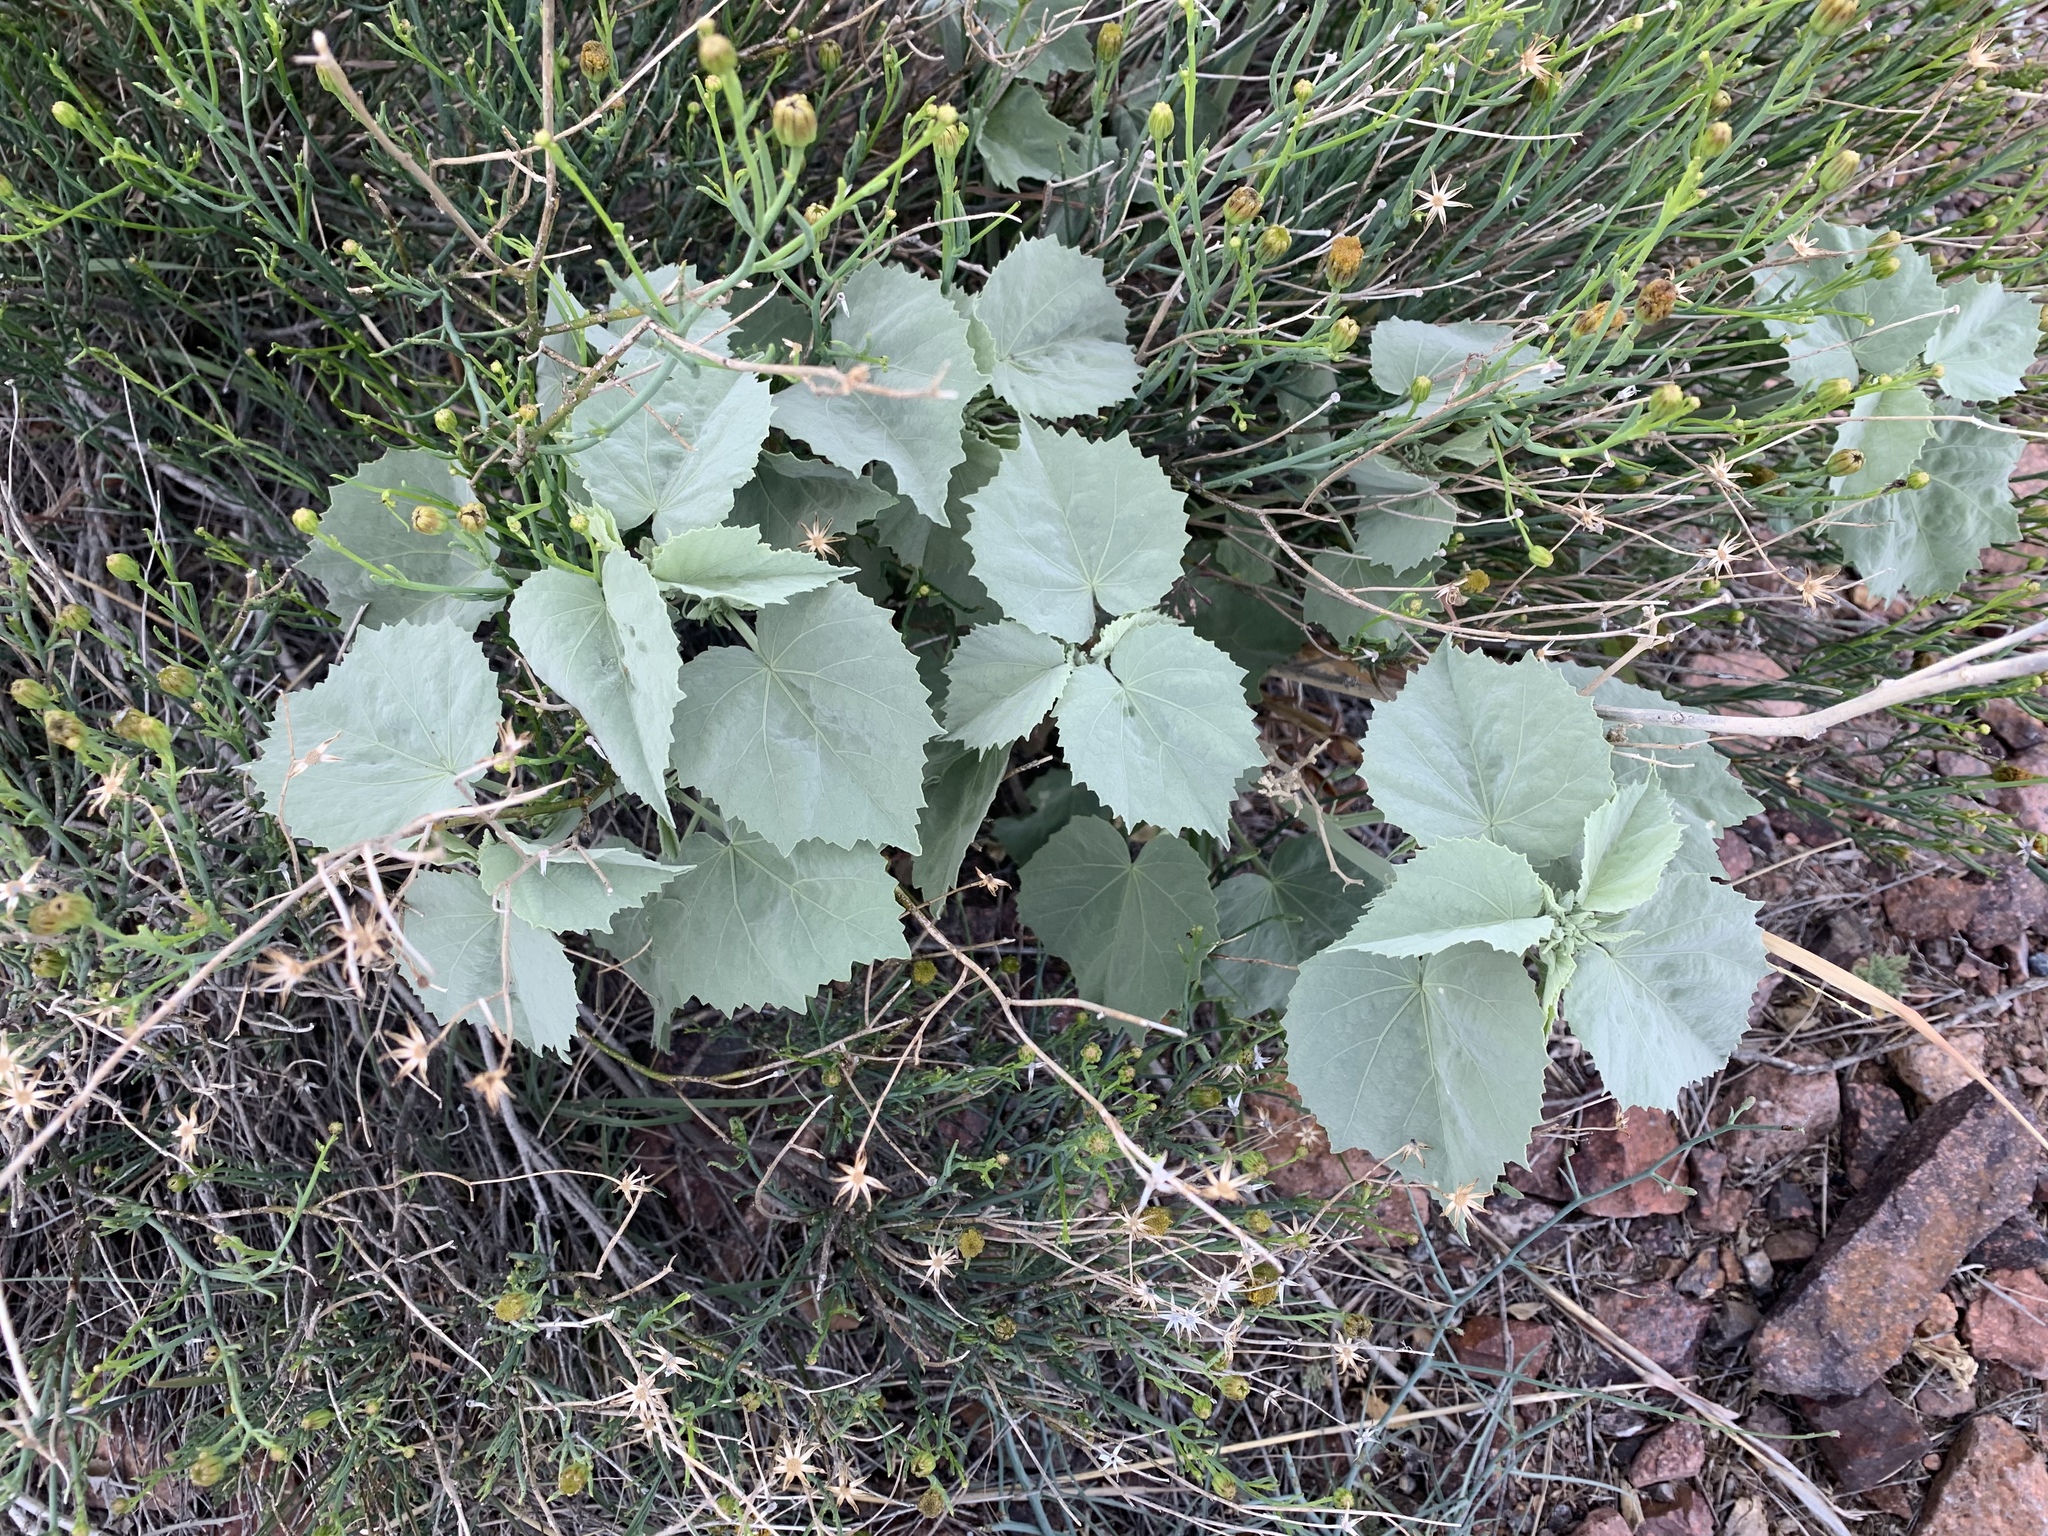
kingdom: Plantae
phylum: Tracheophyta
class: Magnoliopsida
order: Malvales
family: Malvaceae
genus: Abutilon
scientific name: Abutilon malacum
